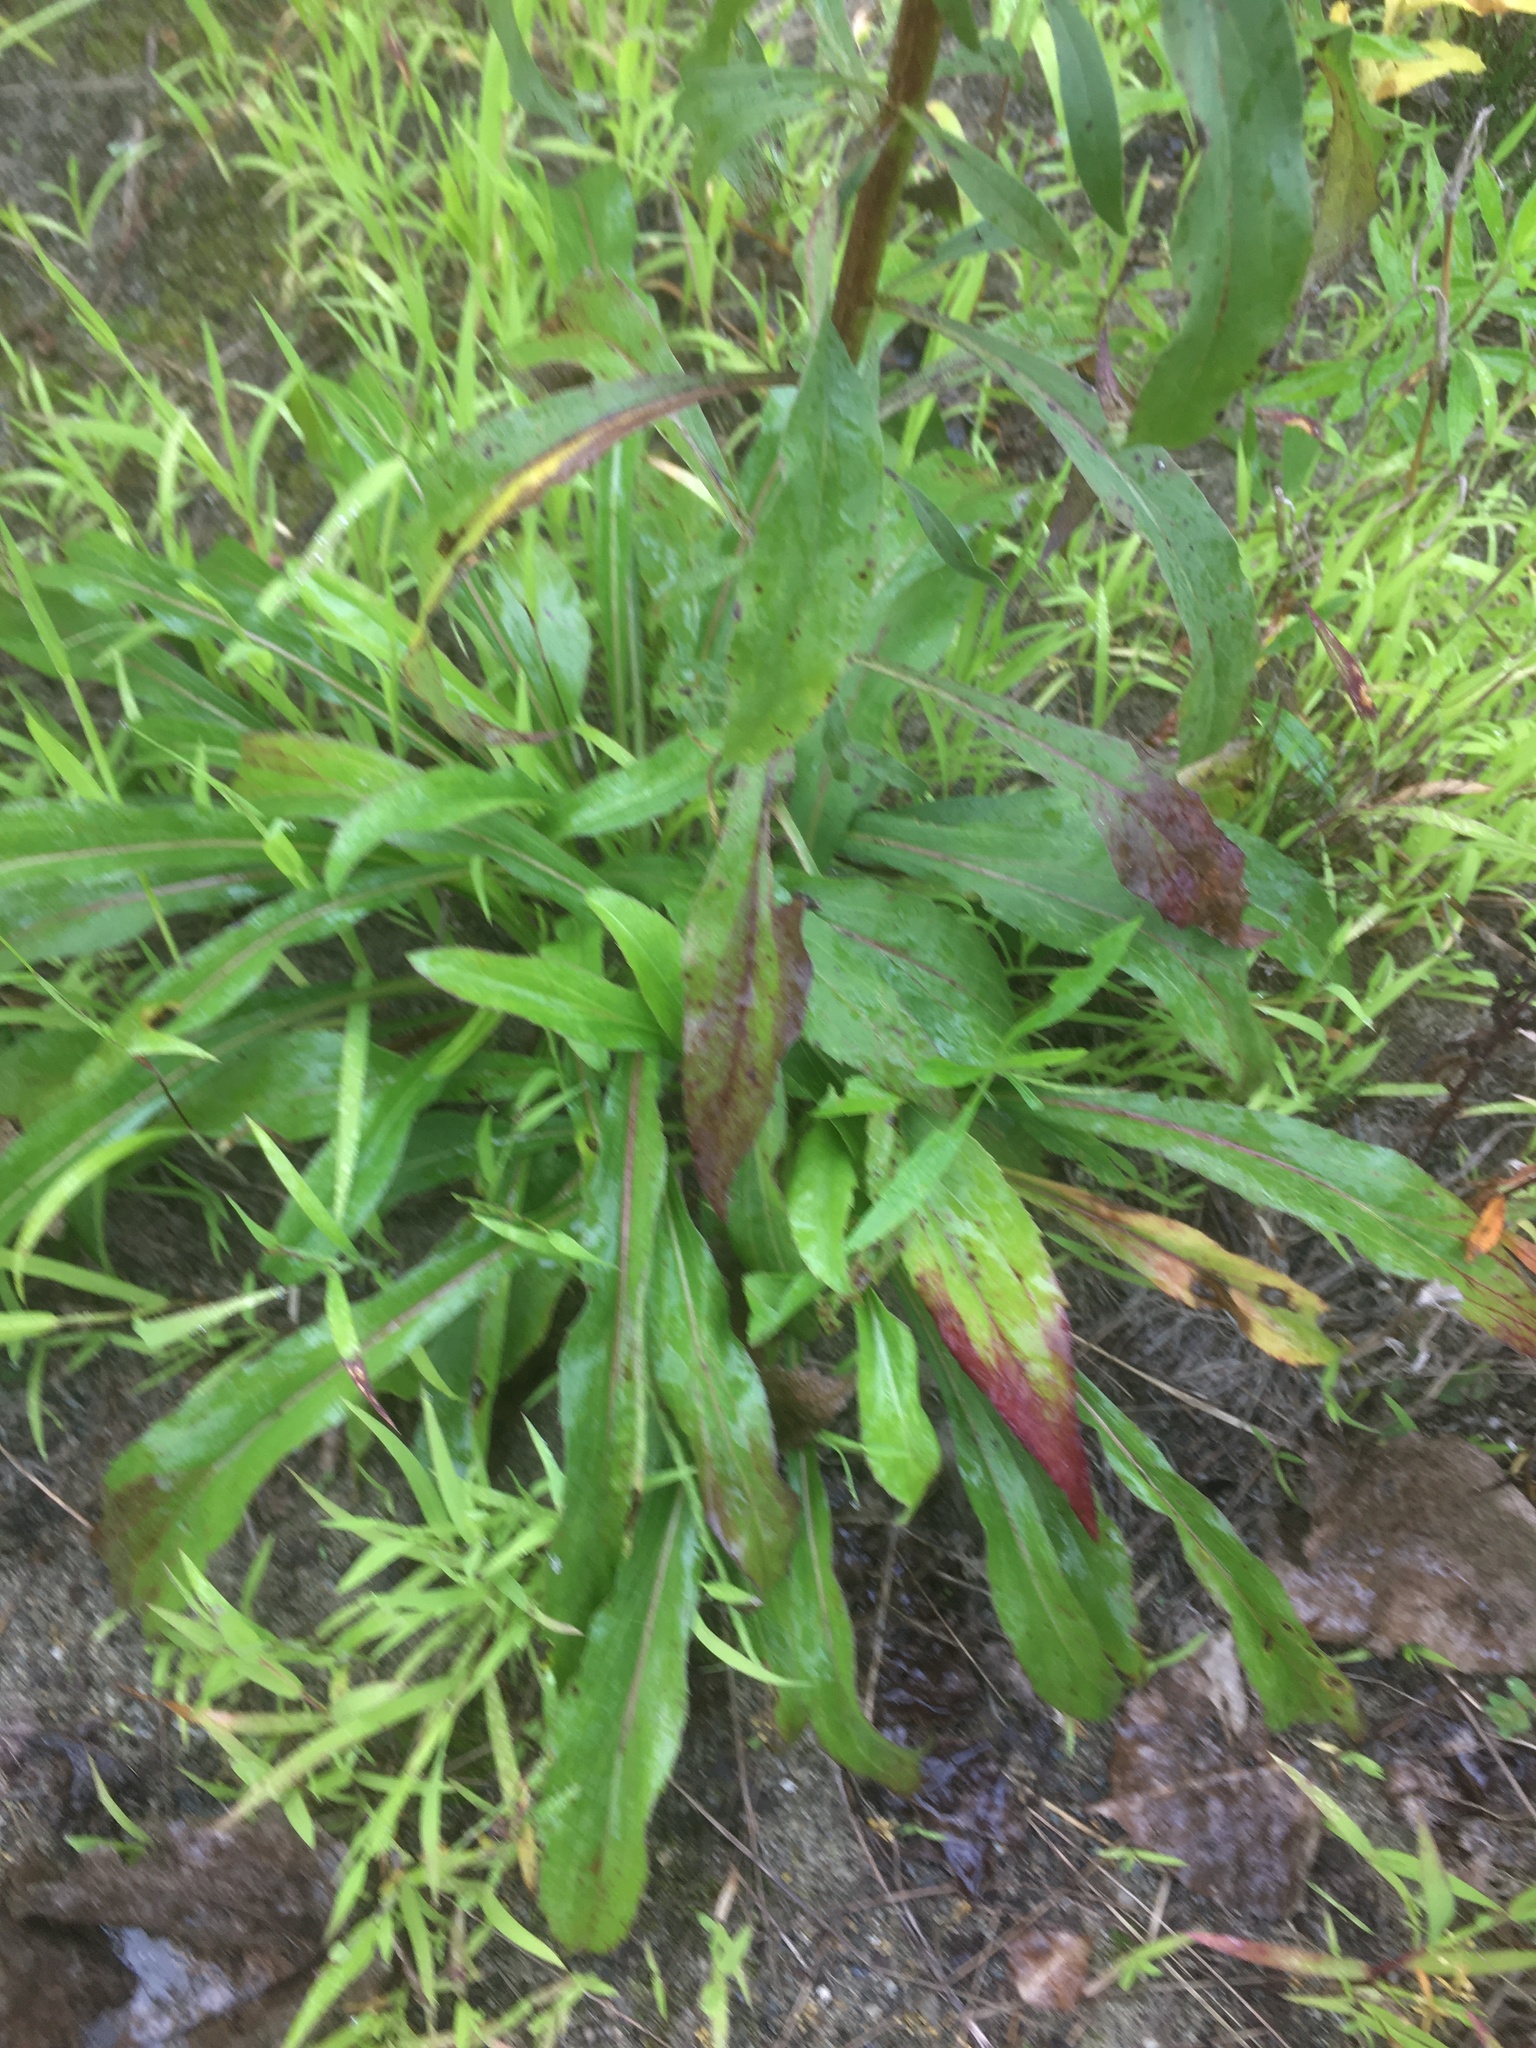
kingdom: Plantae
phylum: Tracheophyta
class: Magnoliopsida
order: Asterales
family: Asteraceae
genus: Solidago
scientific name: Solidago juncea
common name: Early goldenrod
